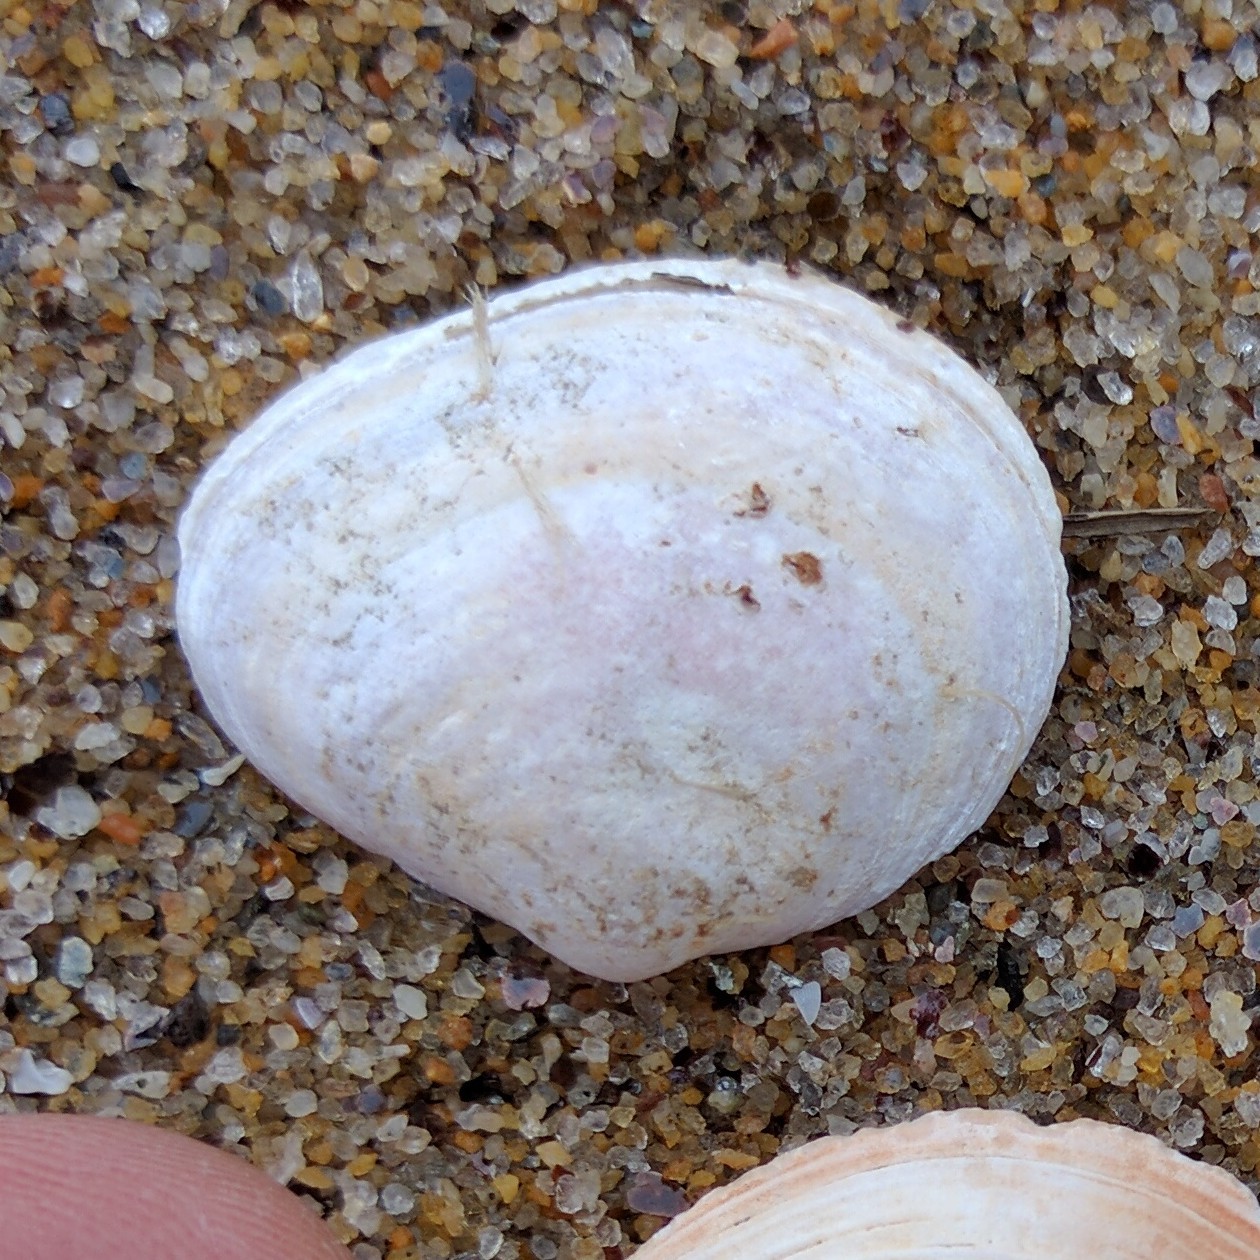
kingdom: Animalia
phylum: Mollusca
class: Bivalvia
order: Cardiida
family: Tellinidae
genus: Macoma
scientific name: Macoma petalum
